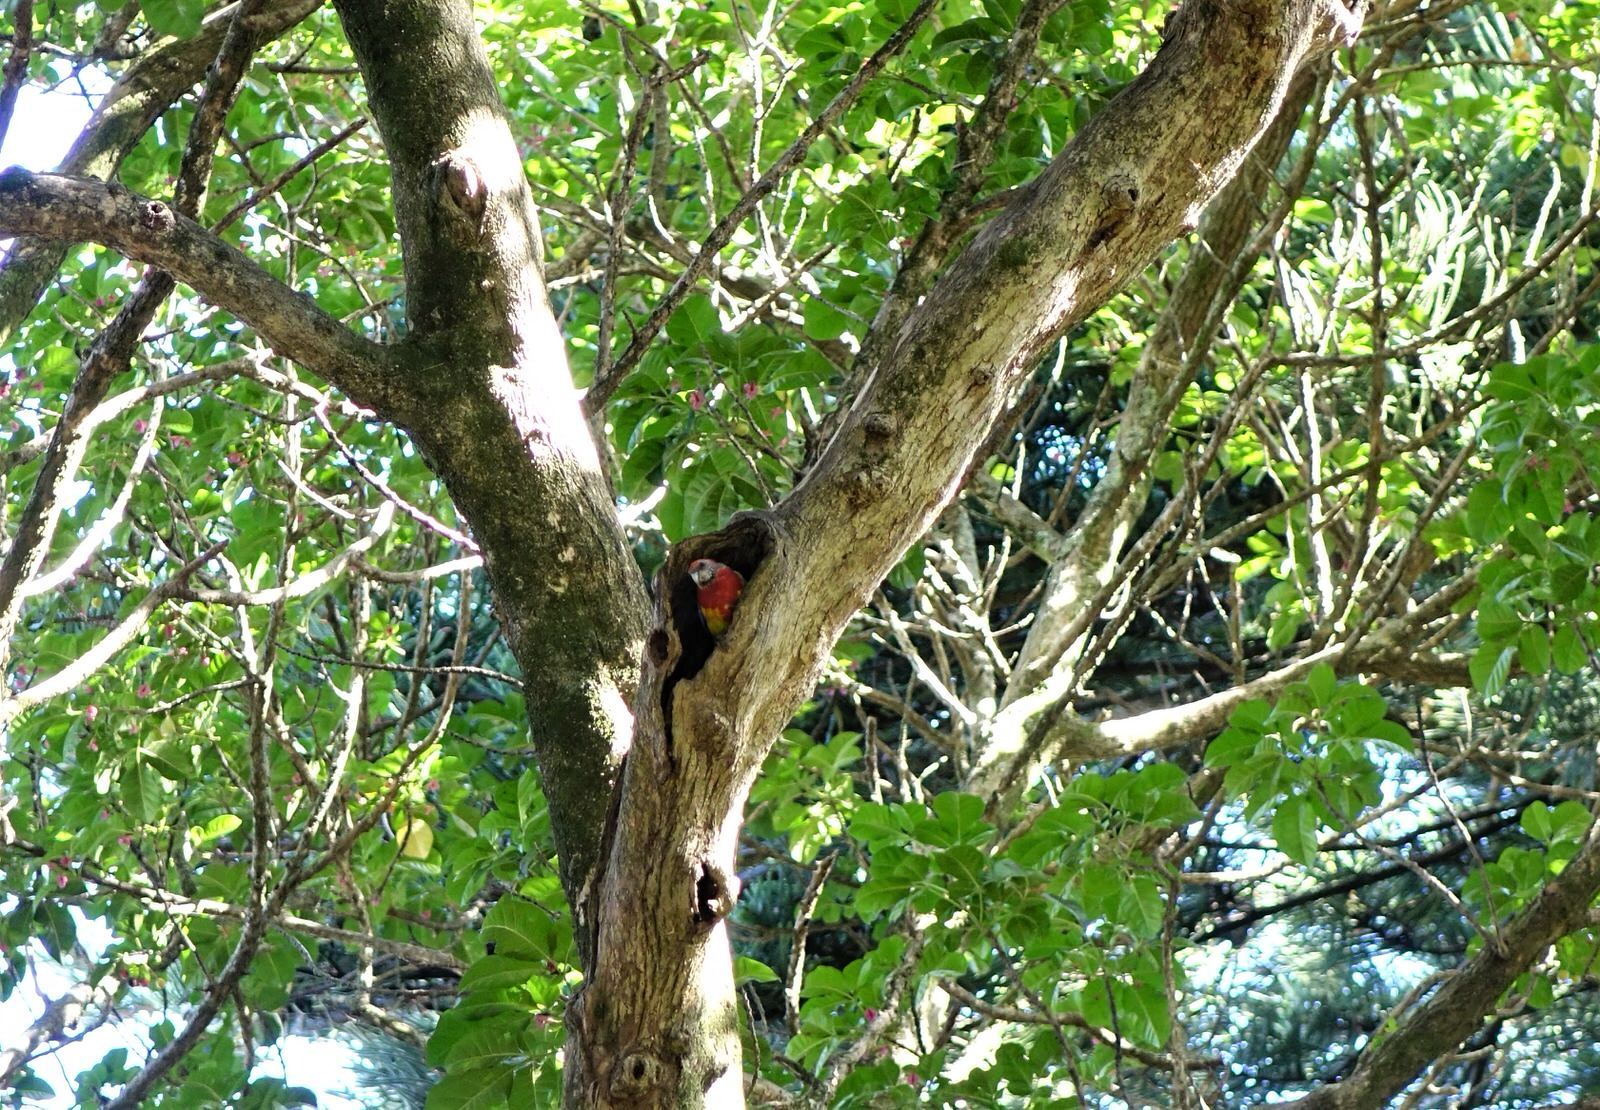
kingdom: Animalia
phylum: Chordata
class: Aves
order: Psittaciformes
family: Psittacidae
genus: Platycercus
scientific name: Platycercus eximius
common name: Eastern rosella
